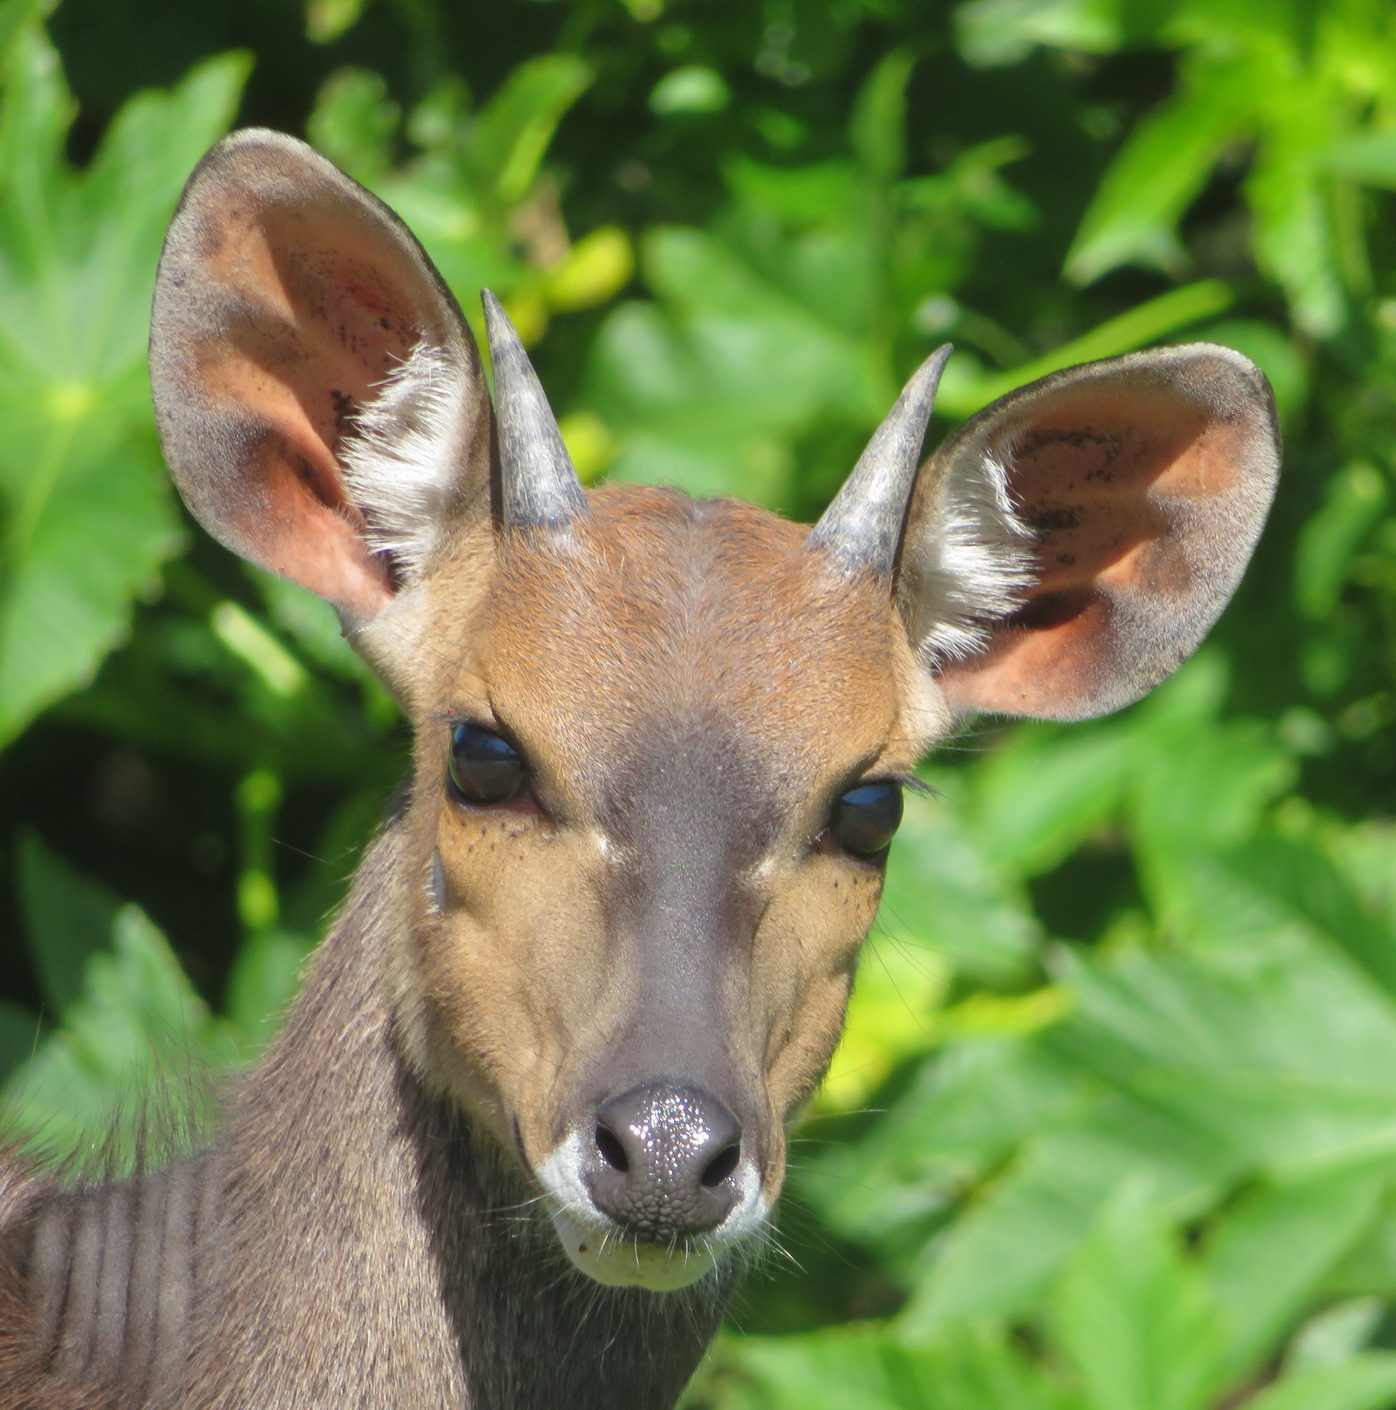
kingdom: Animalia
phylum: Chordata
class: Mammalia
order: Artiodactyla
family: Bovidae
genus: Tragelaphus
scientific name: Tragelaphus scriptus
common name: Bushbuck
